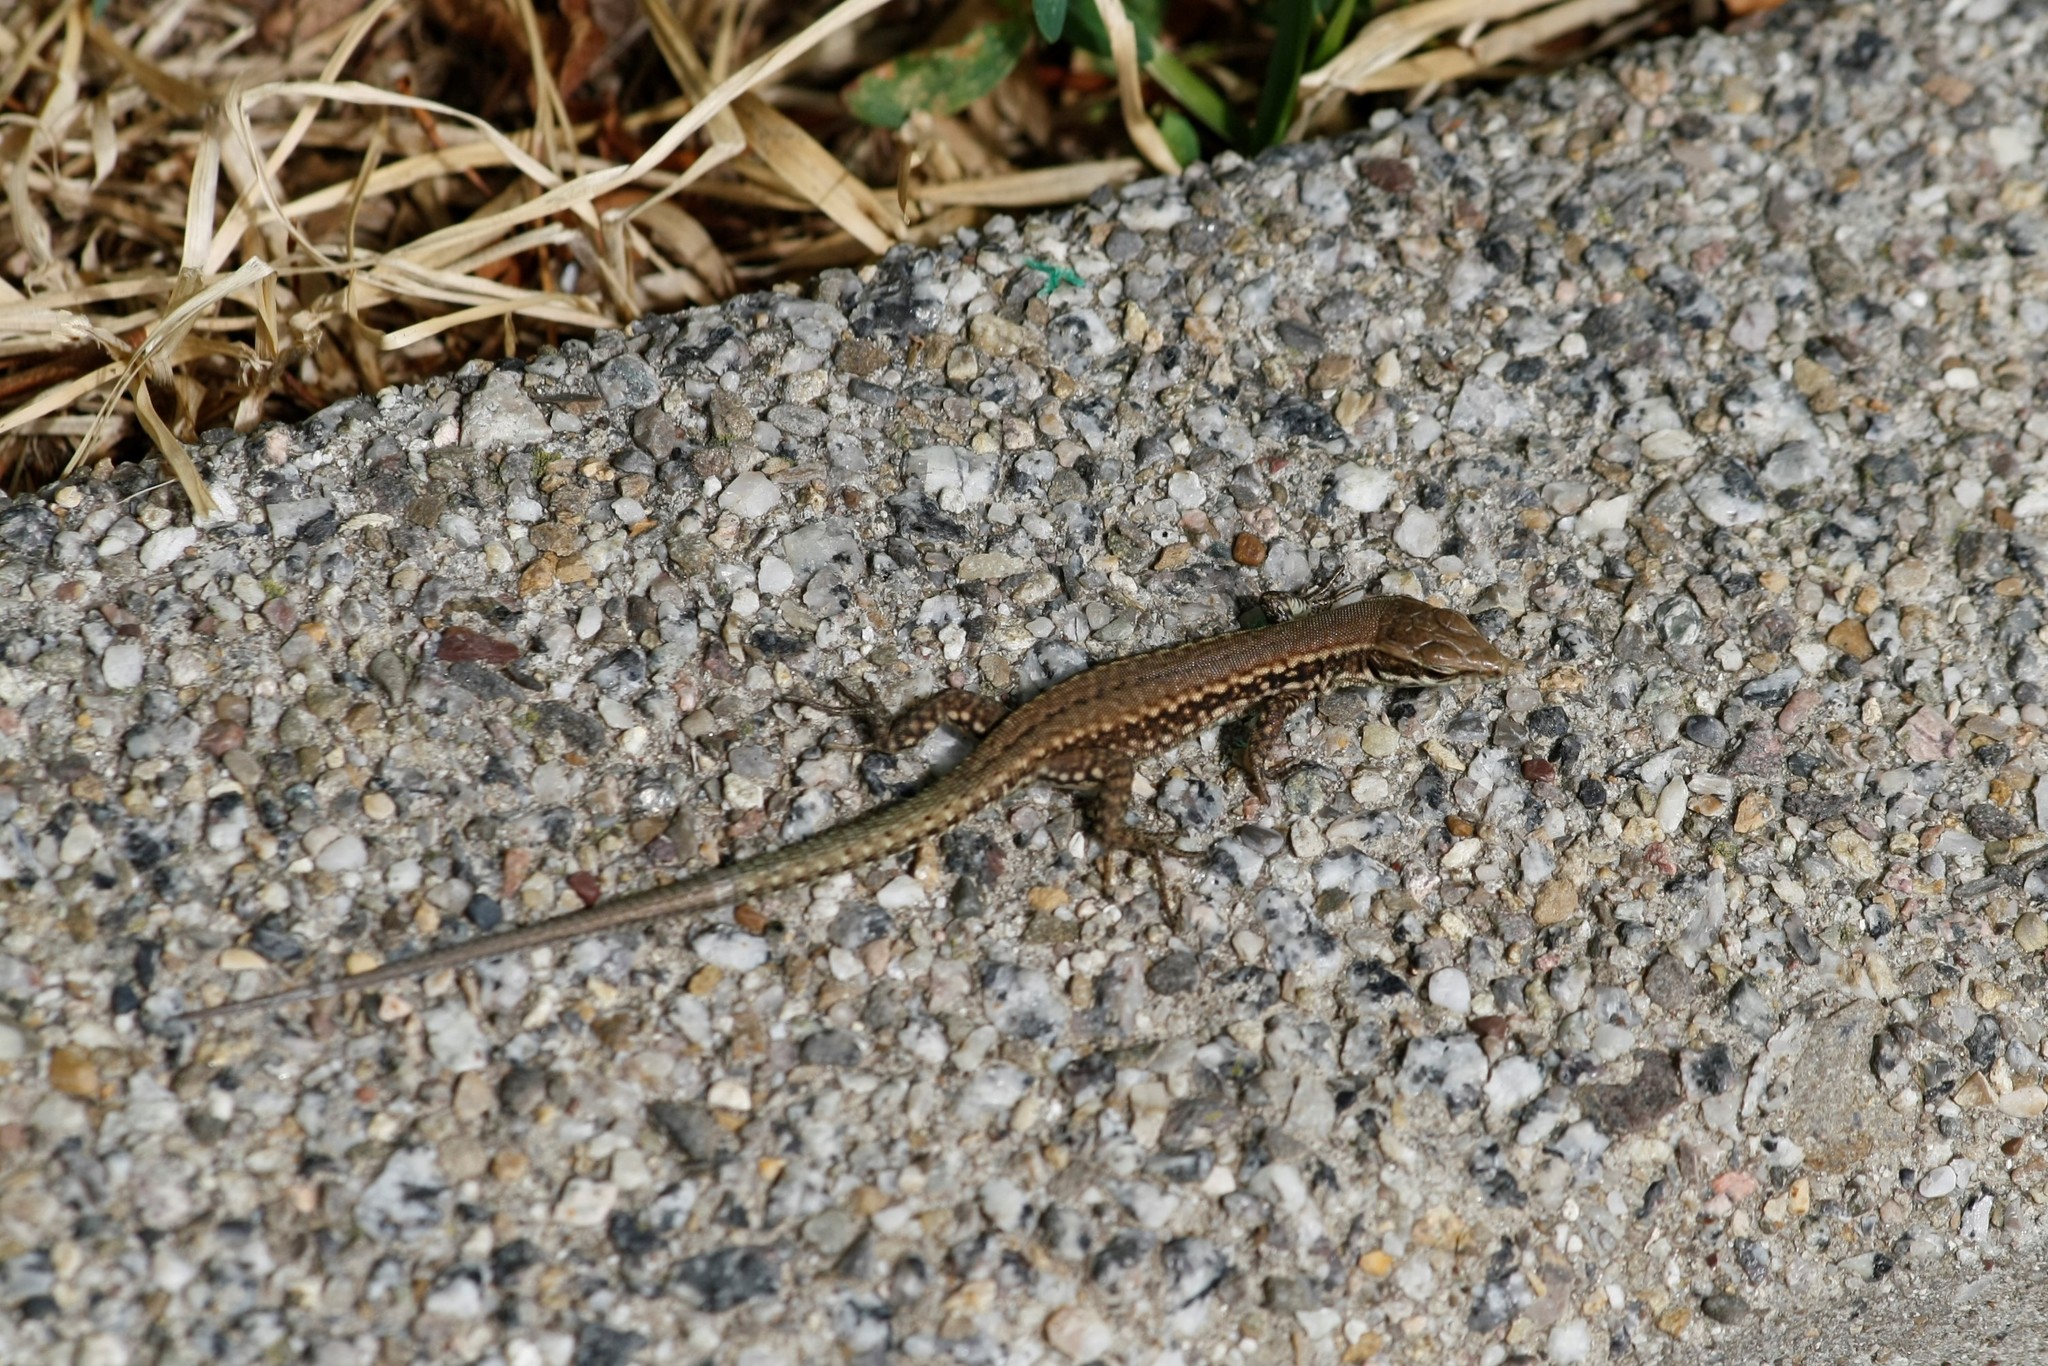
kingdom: Animalia
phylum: Chordata
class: Squamata
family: Lacertidae
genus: Podarcis
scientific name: Podarcis muralis
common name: Common wall lizard
